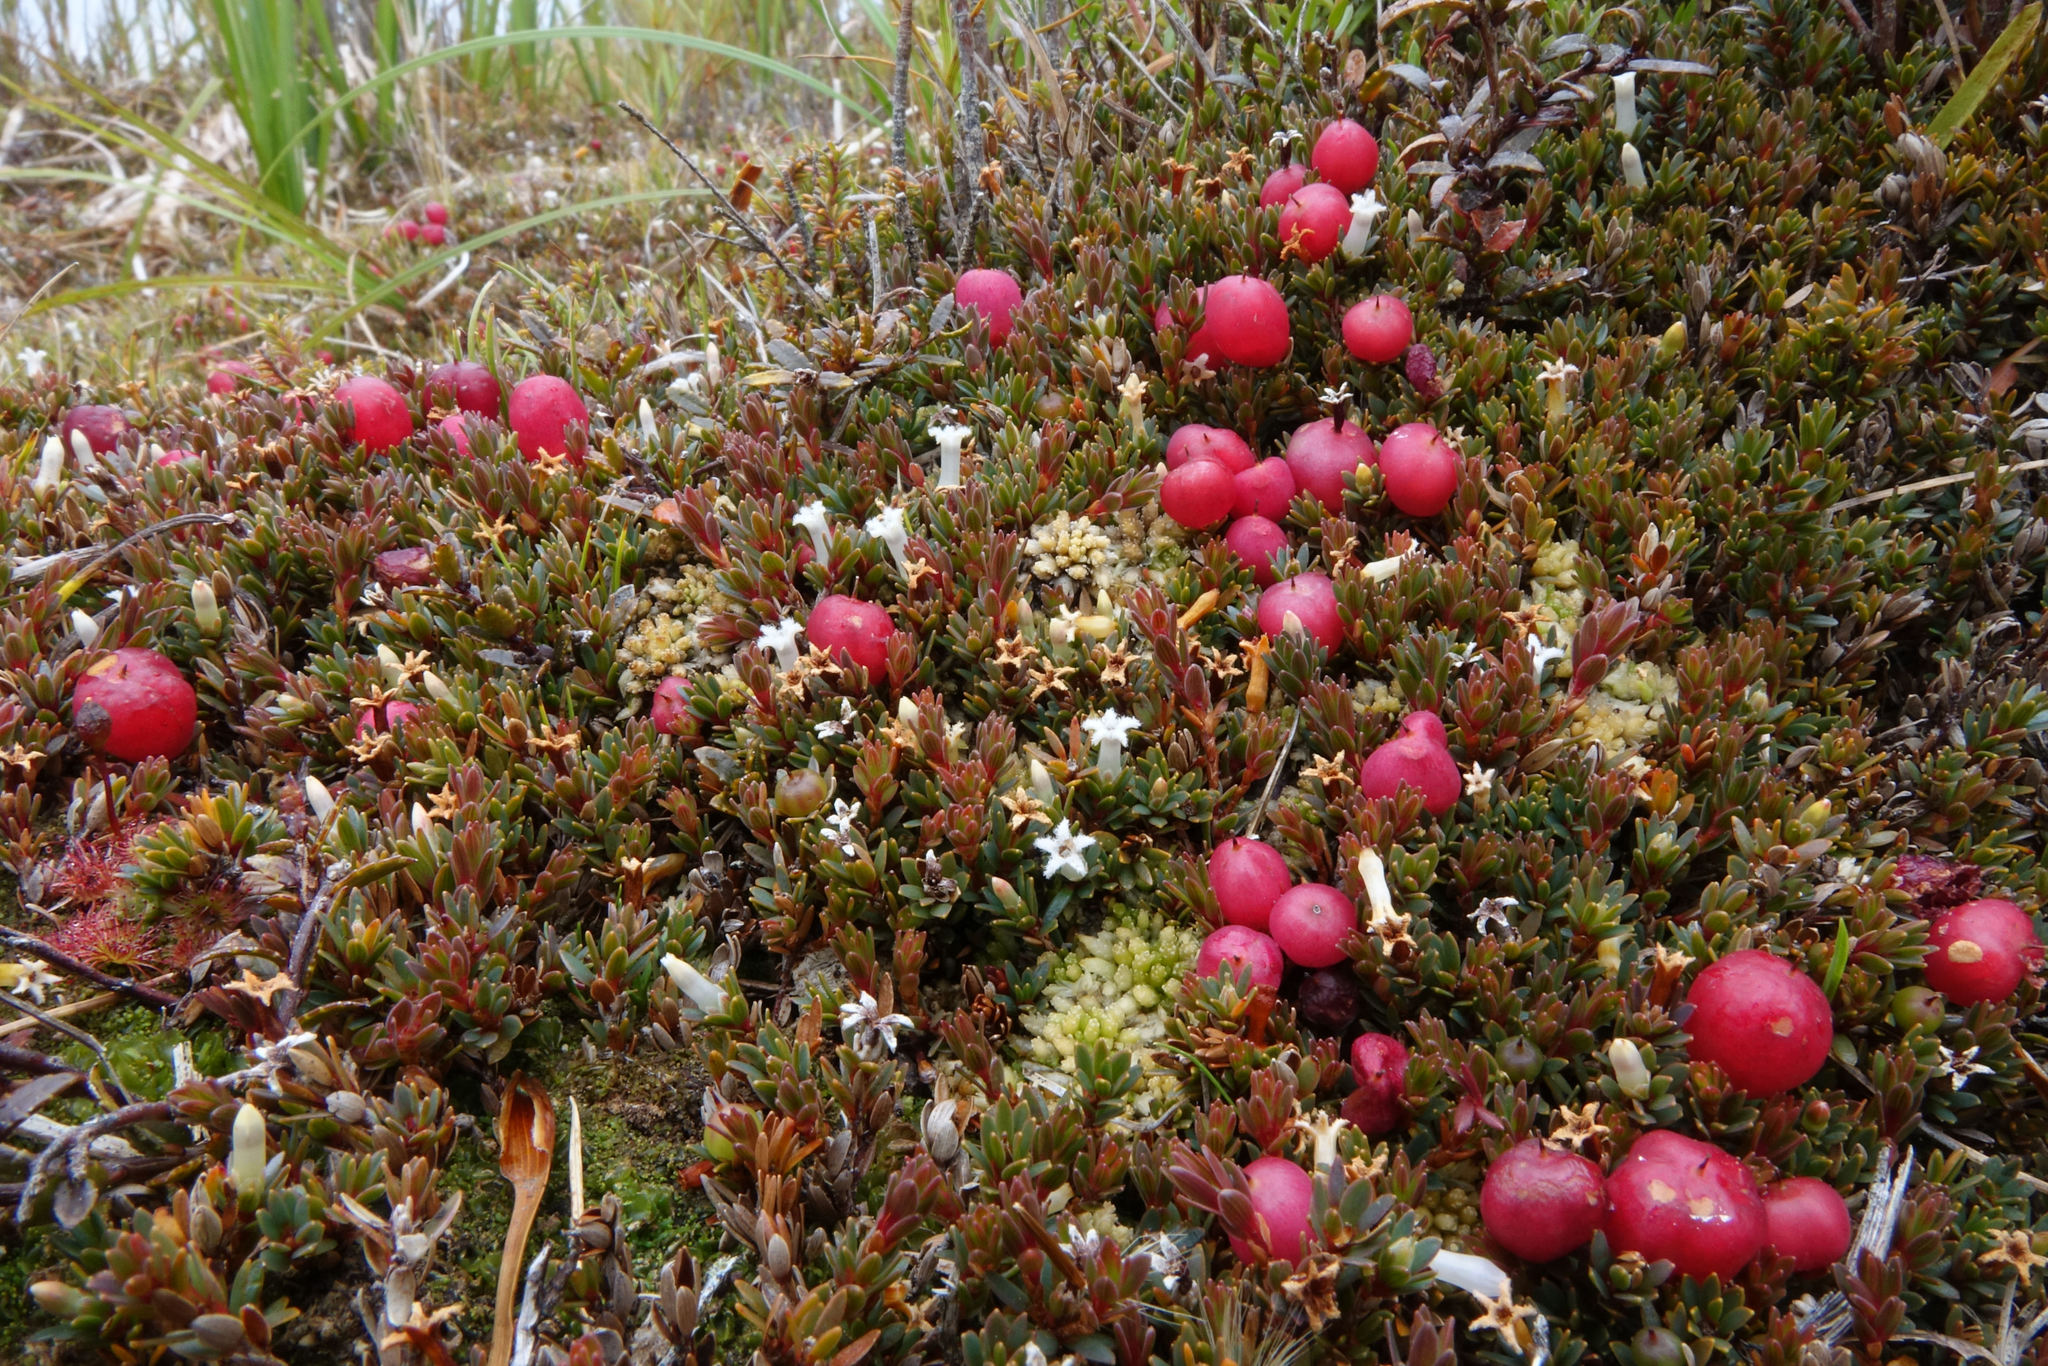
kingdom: Plantae
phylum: Tracheophyta
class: Magnoliopsida
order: Ericales
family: Ericaceae
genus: Pentachondra
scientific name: Pentachondra pumila
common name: Carpet-heath
